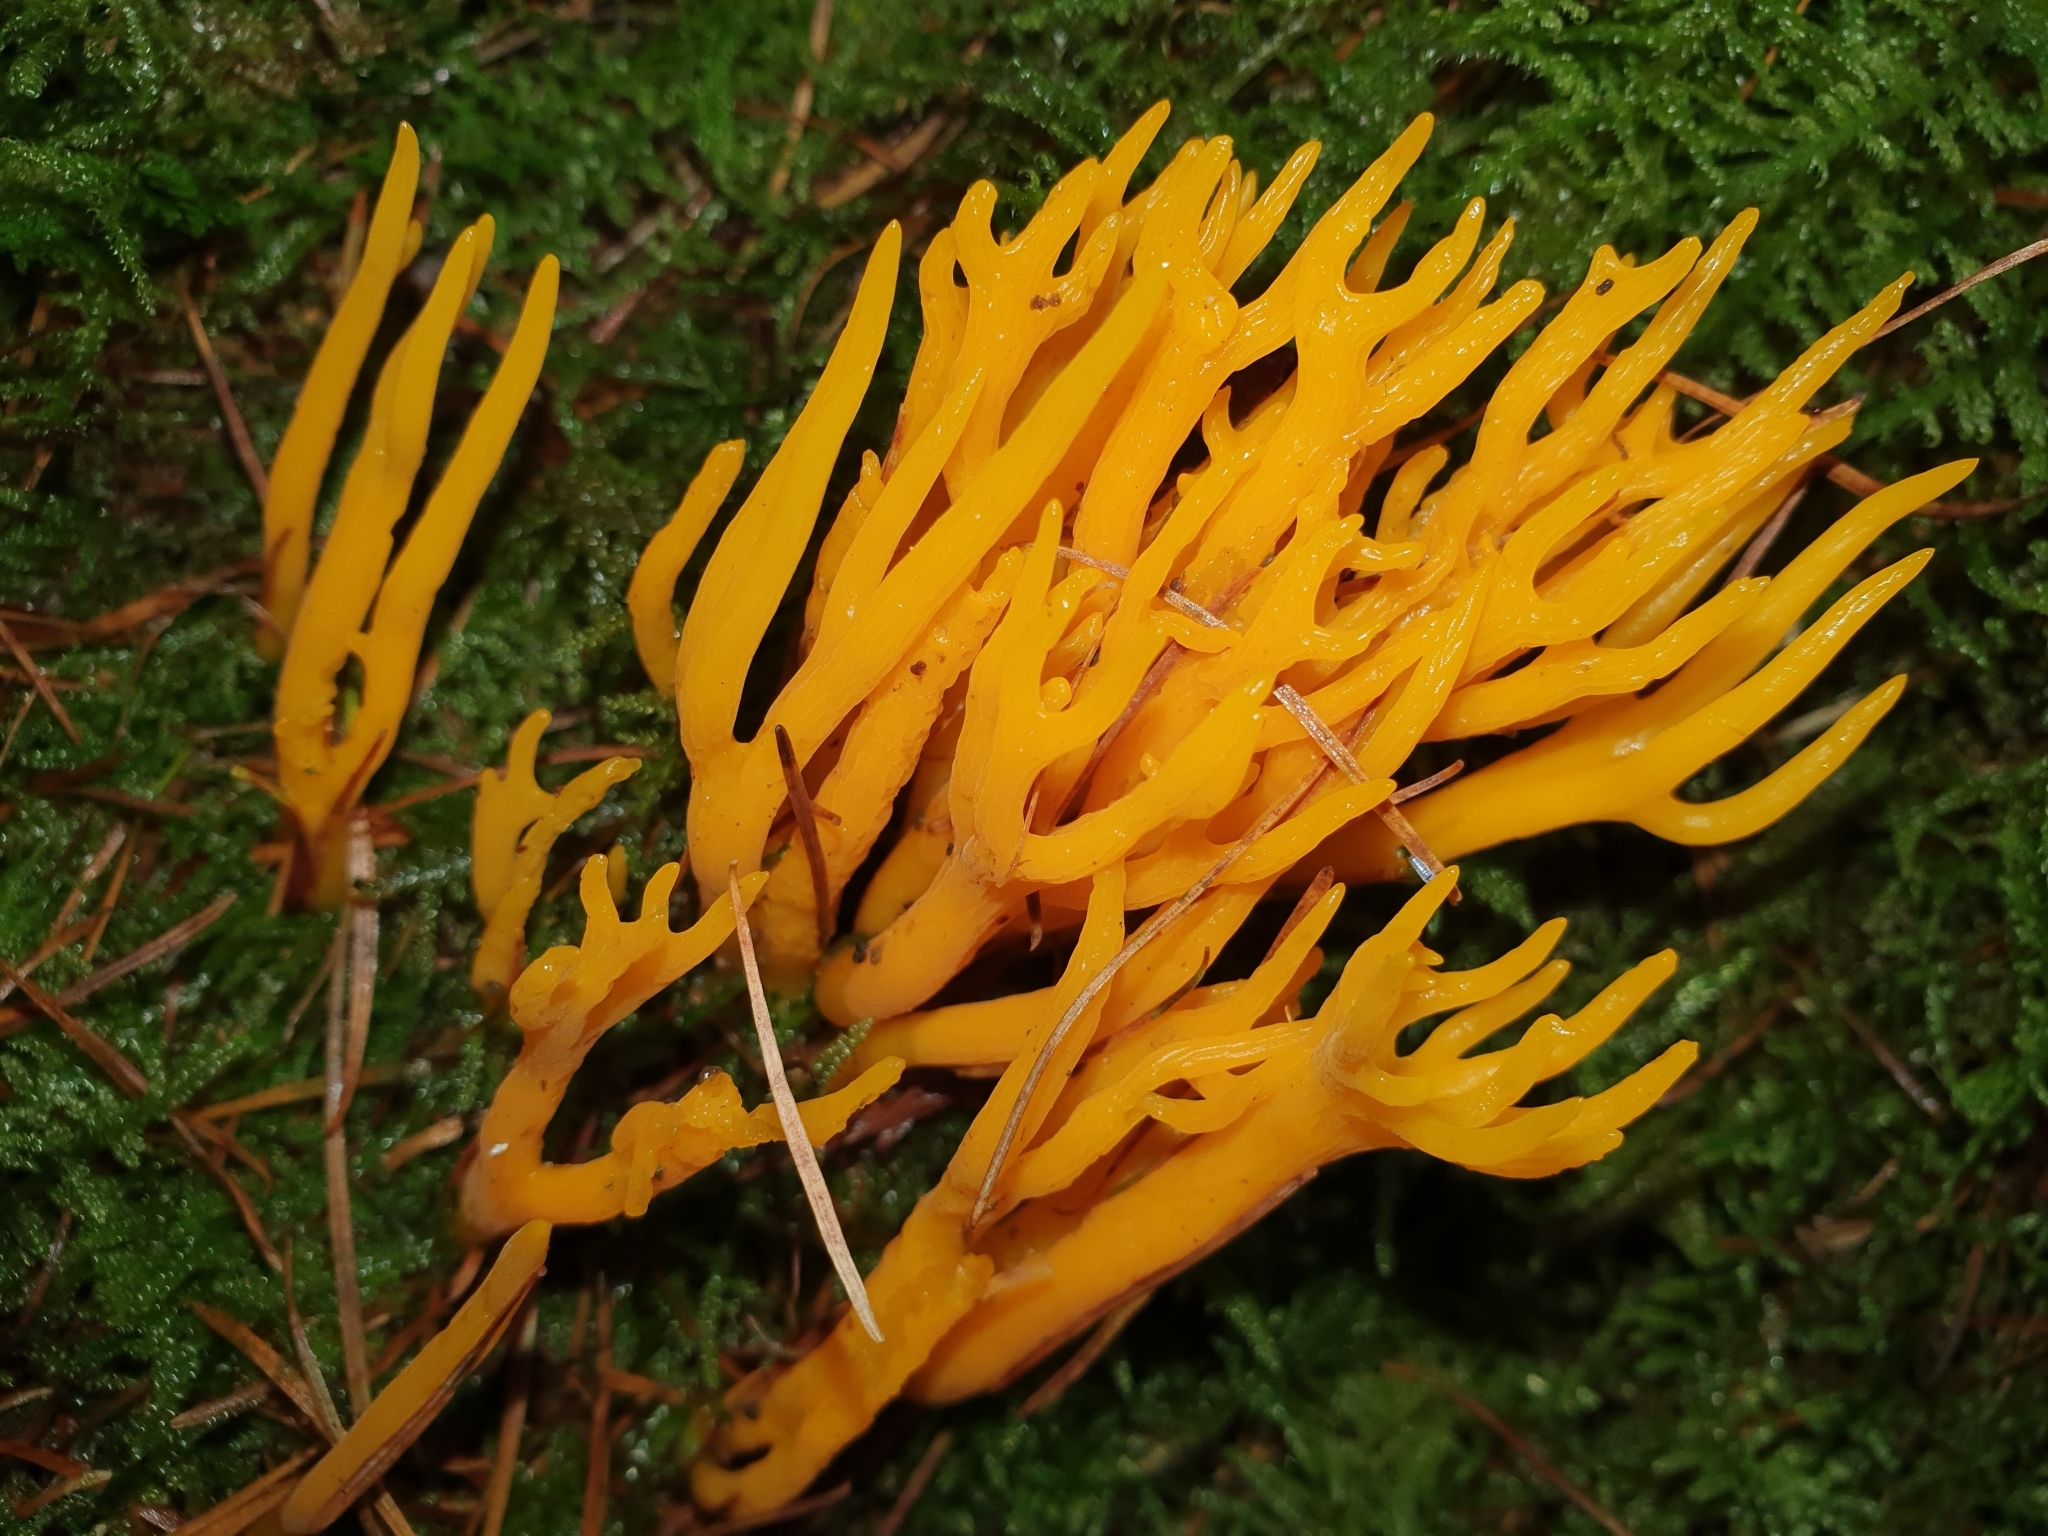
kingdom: Fungi
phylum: Basidiomycota
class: Dacrymycetes
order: Dacrymycetales
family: Dacrymycetaceae
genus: Calocera
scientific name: Calocera viscosa
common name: Yellow stagshorn
